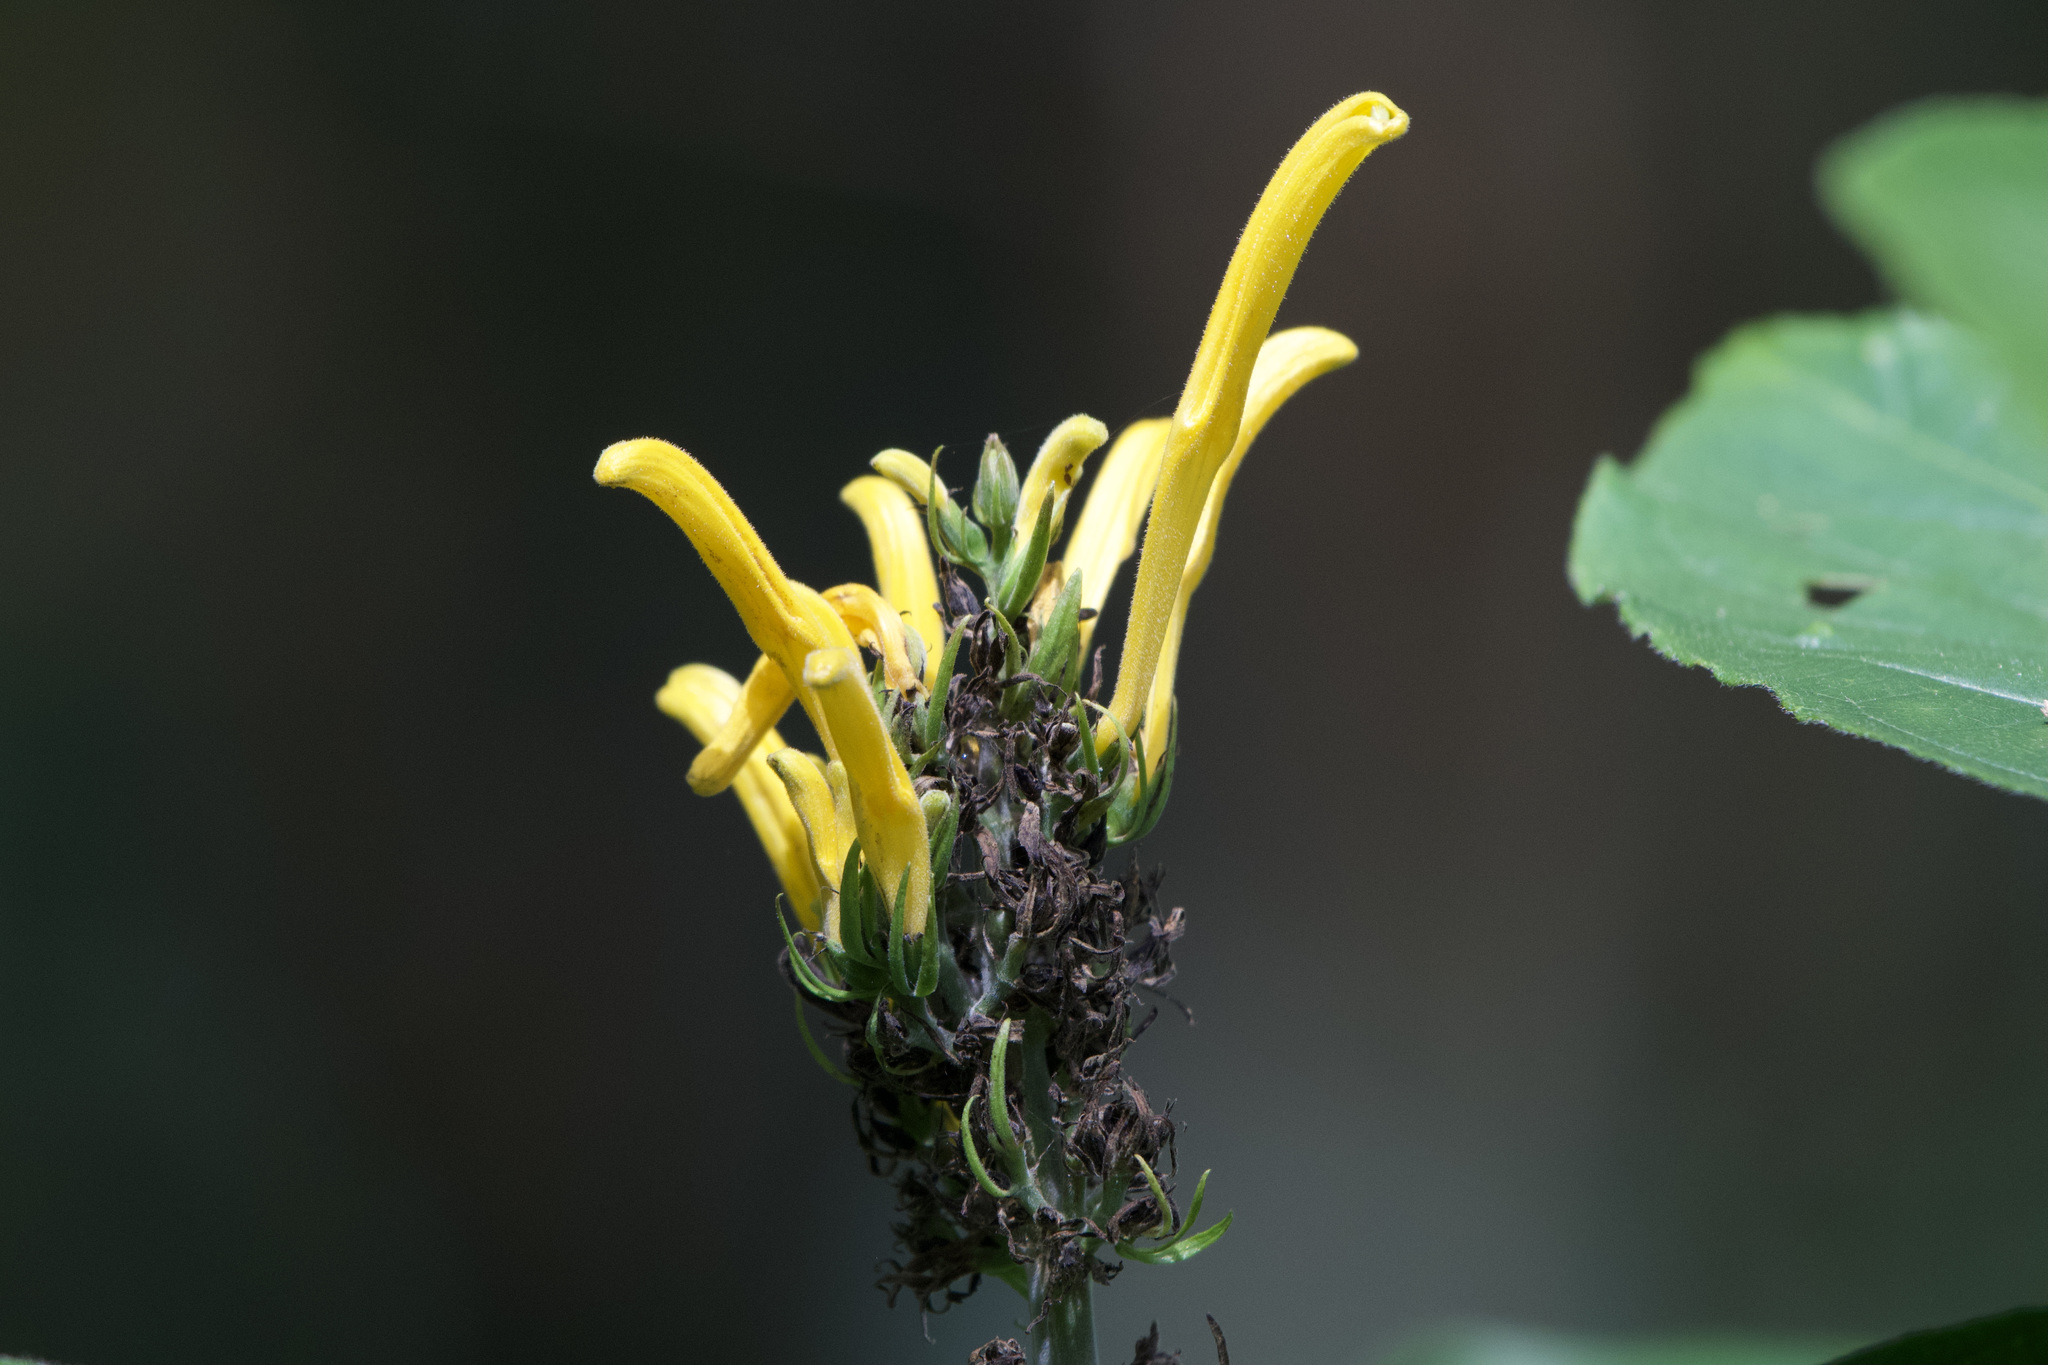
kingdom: Plantae
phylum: Tracheophyta
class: Magnoliopsida
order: Lamiales
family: Acanthaceae
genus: Justicia
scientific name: Justicia aurea
